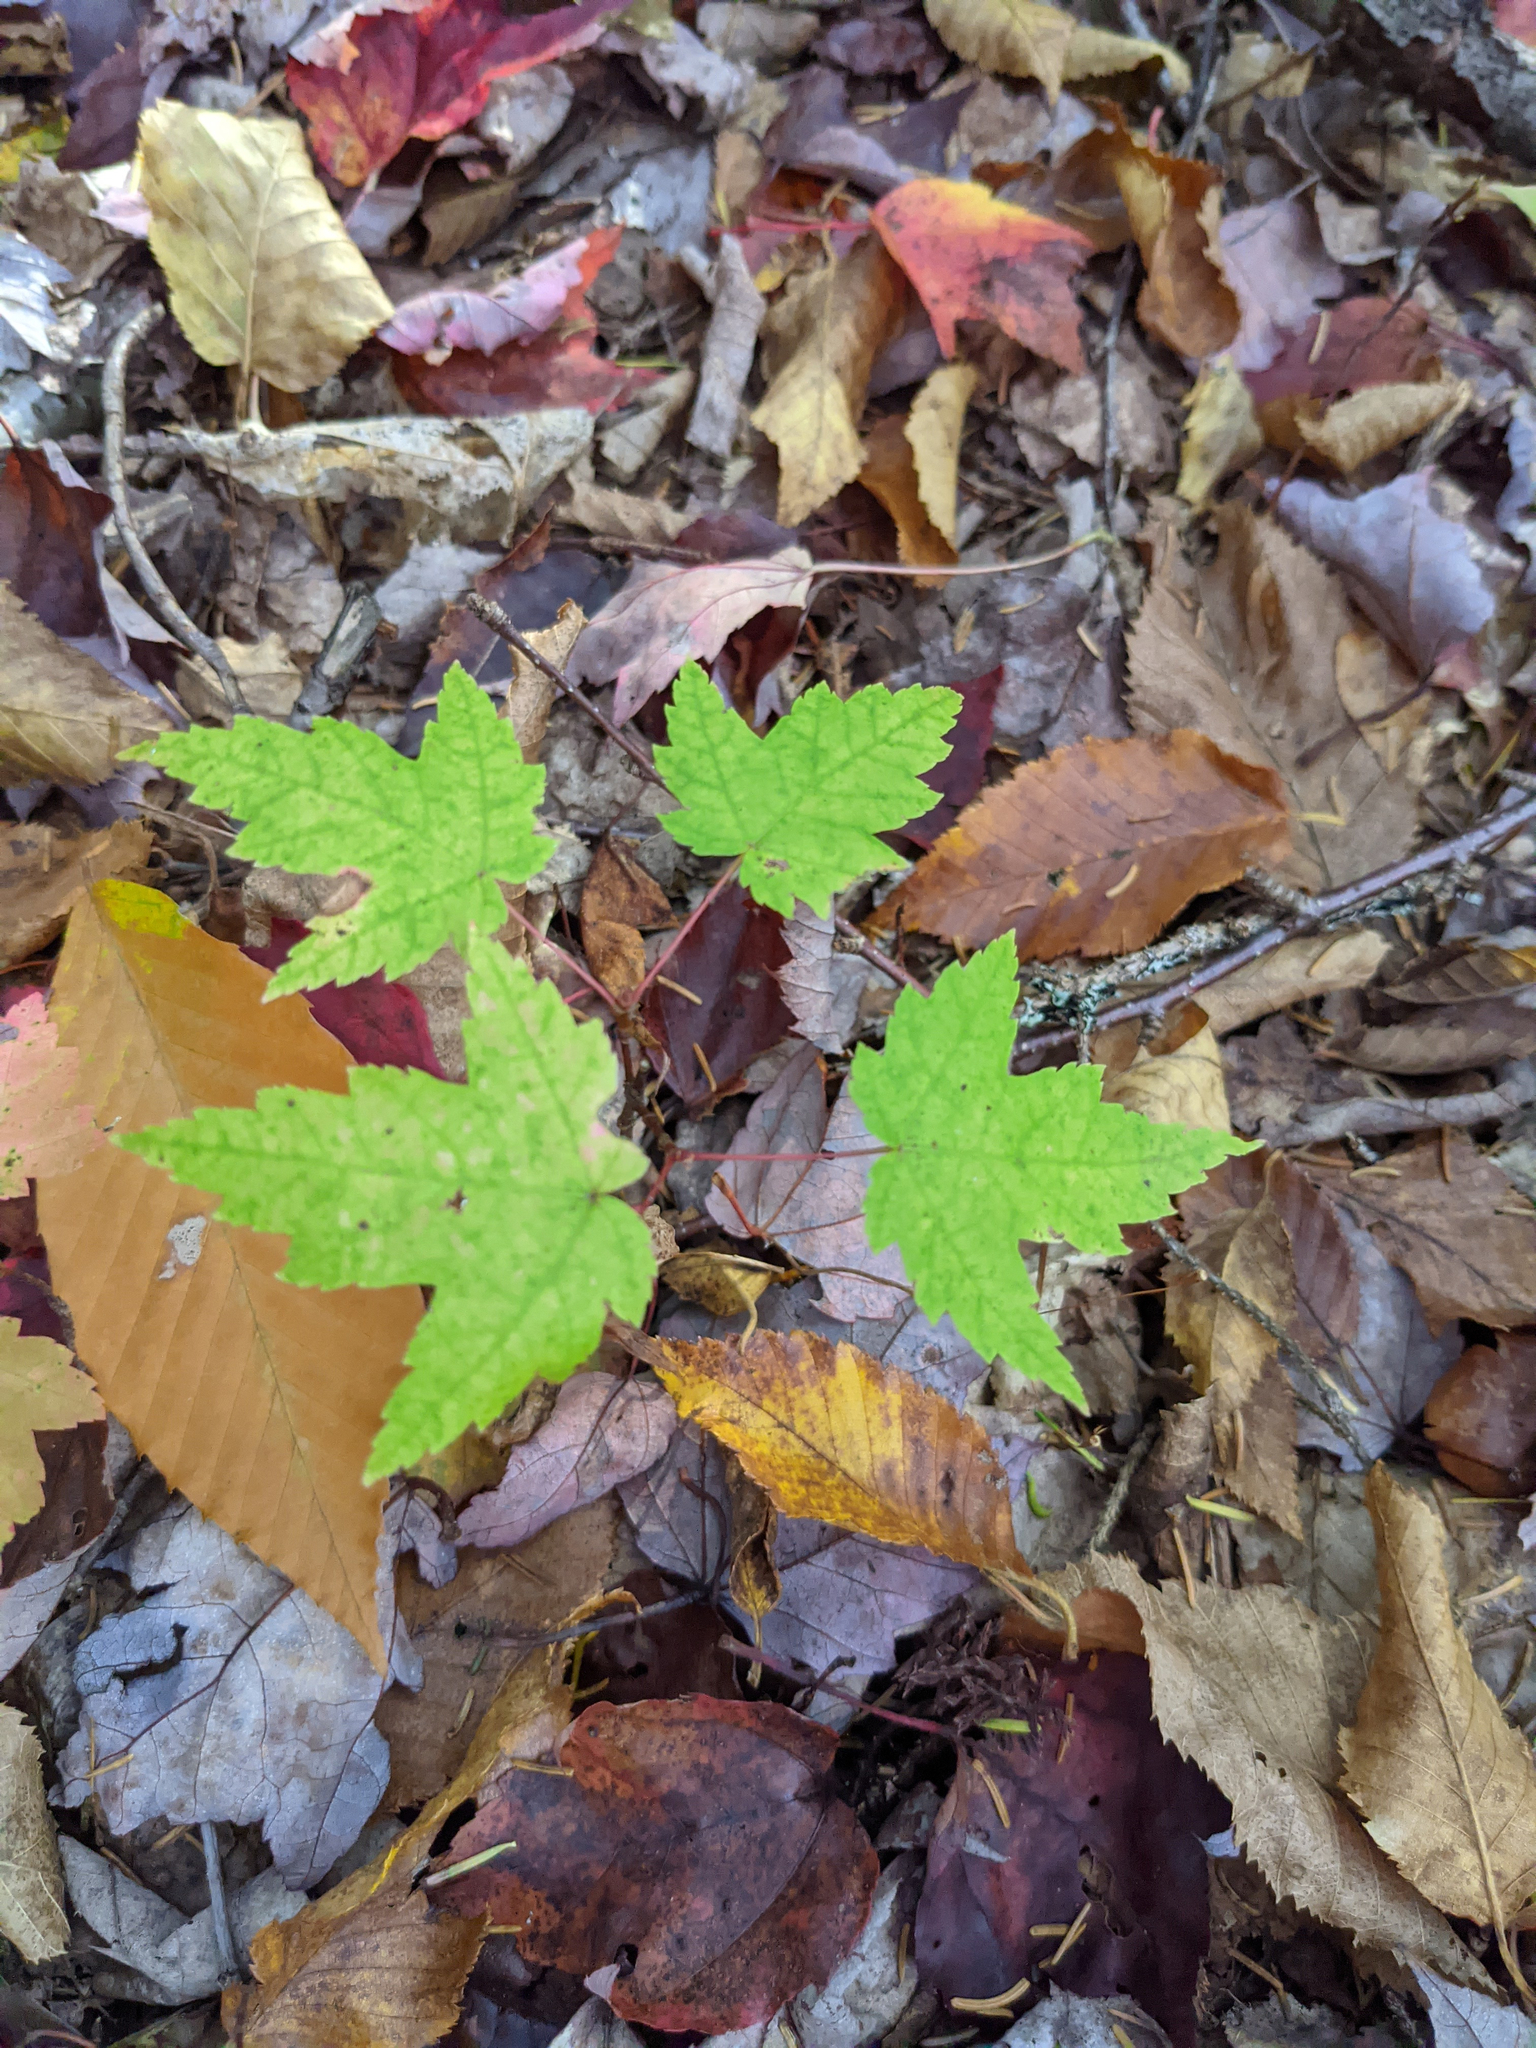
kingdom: Plantae
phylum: Tracheophyta
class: Magnoliopsida
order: Sapindales
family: Sapindaceae
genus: Acer
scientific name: Acer rubrum
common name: Red maple
